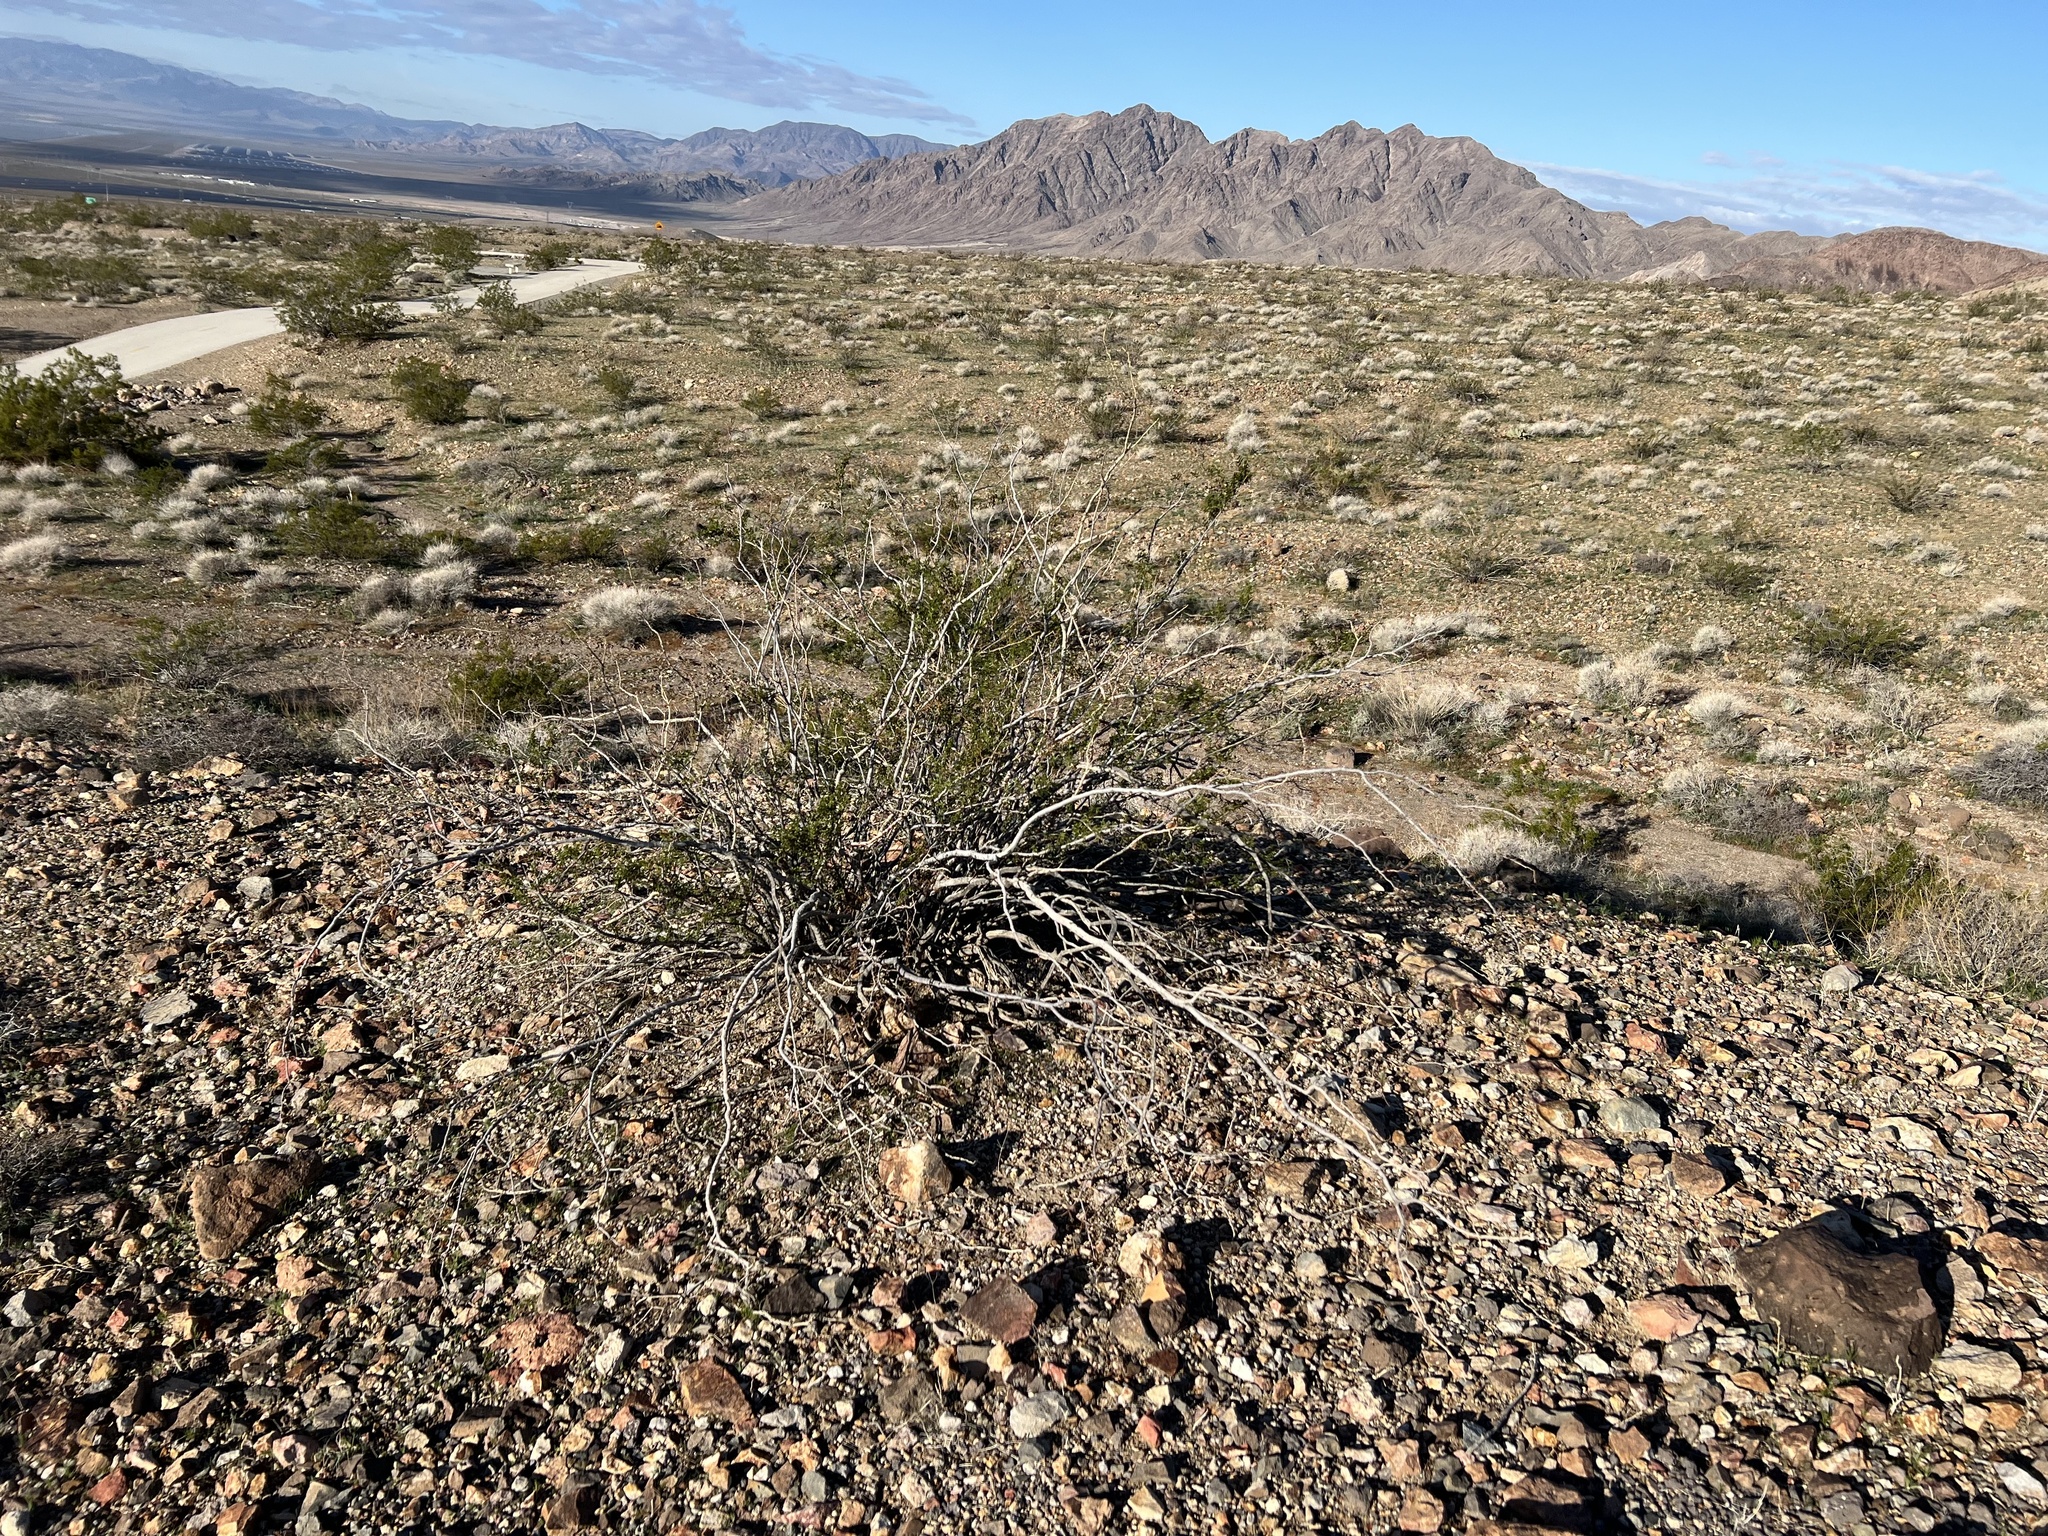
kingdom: Plantae
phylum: Tracheophyta
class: Magnoliopsida
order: Zygophyllales
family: Zygophyllaceae
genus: Larrea
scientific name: Larrea tridentata
